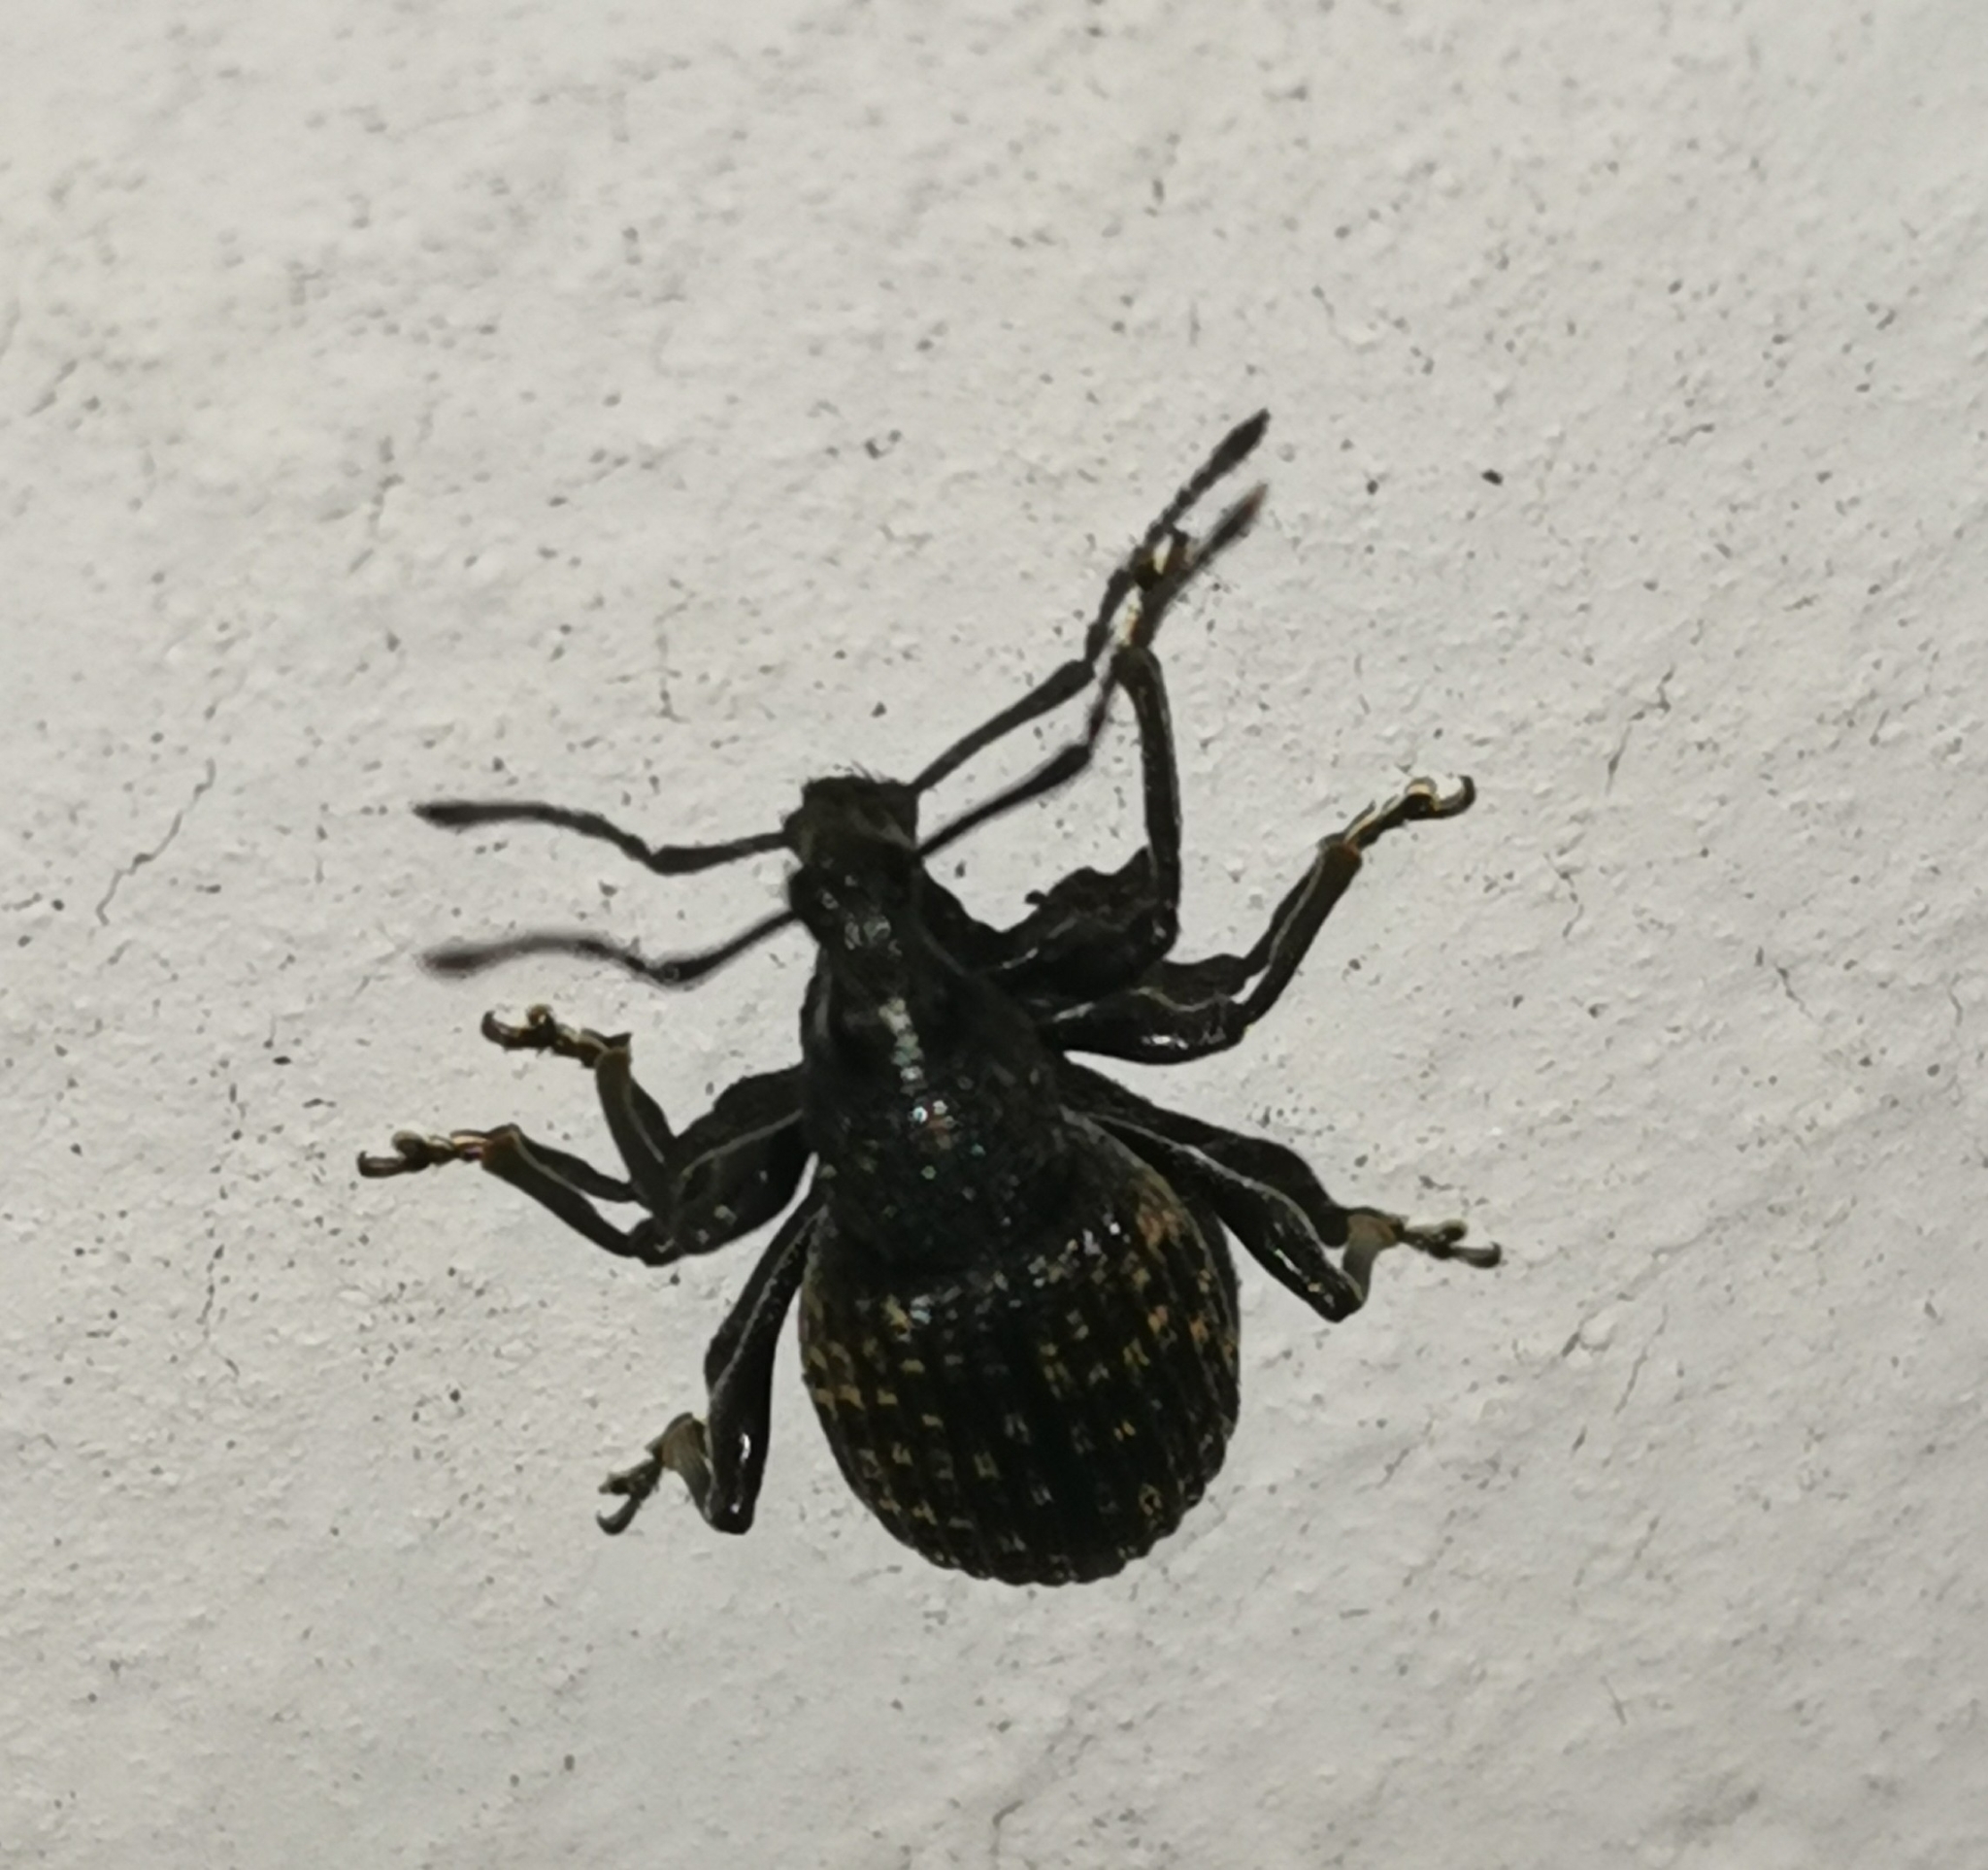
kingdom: Animalia
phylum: Arthropoda
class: Insecta
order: Coleoptera
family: Curculionidae
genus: Otiorhynchus
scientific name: Otiorhynchus sulcatus
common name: Black vine weevil
